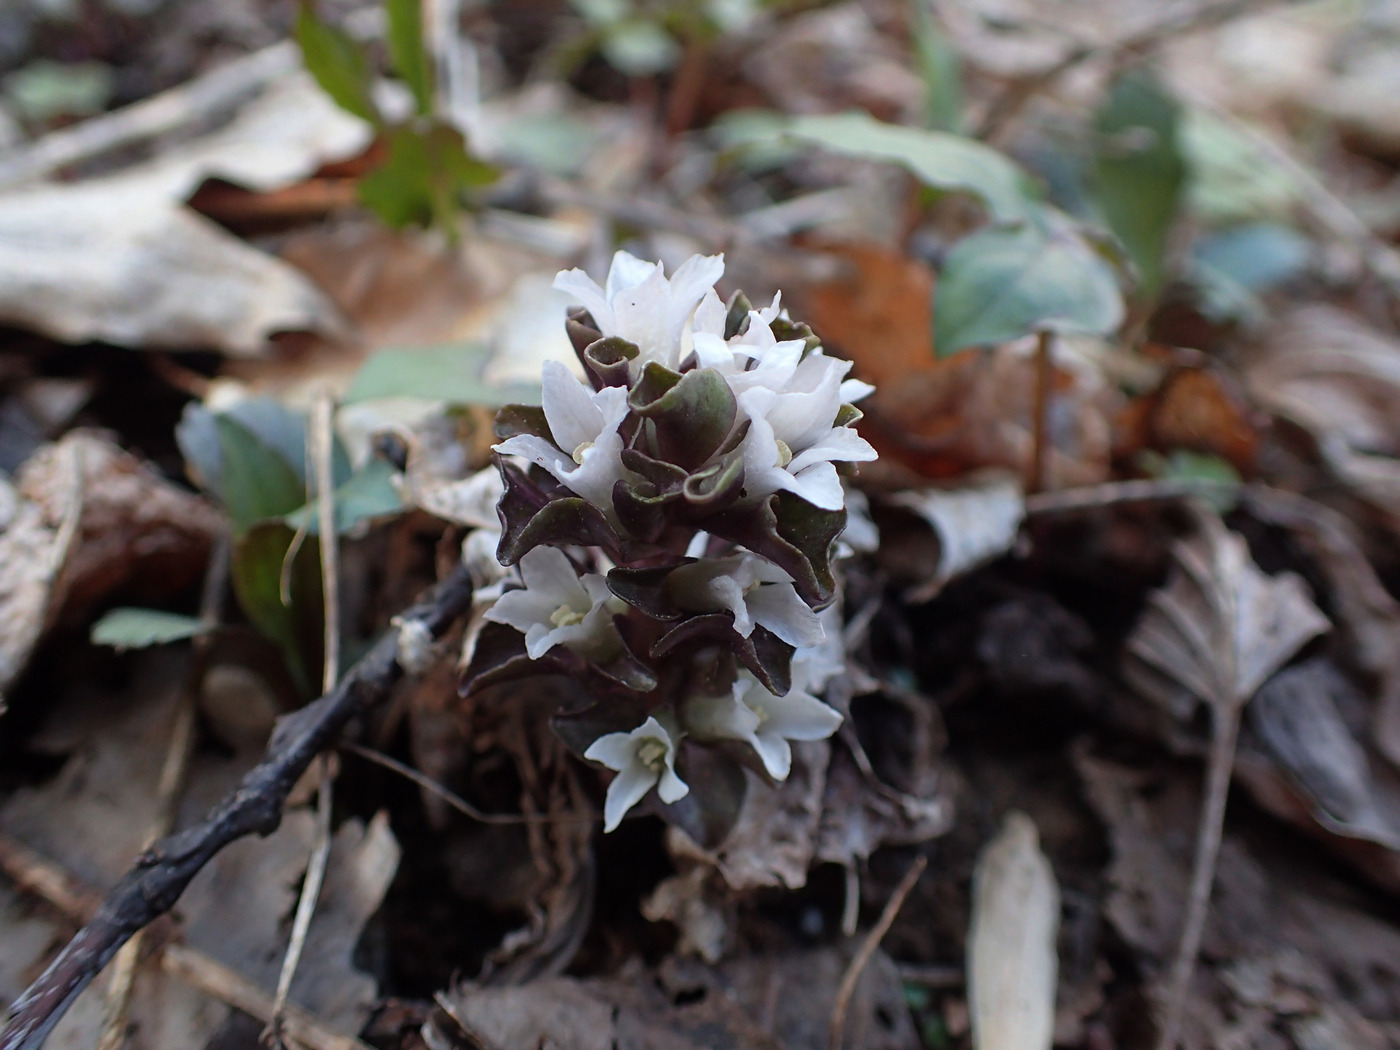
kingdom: Plantae
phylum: Tracheophyta
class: Magnoliopsida
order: Gentianales
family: Gentianaceae
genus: Obolaria
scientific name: Obolaria virginica
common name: Pennywort
